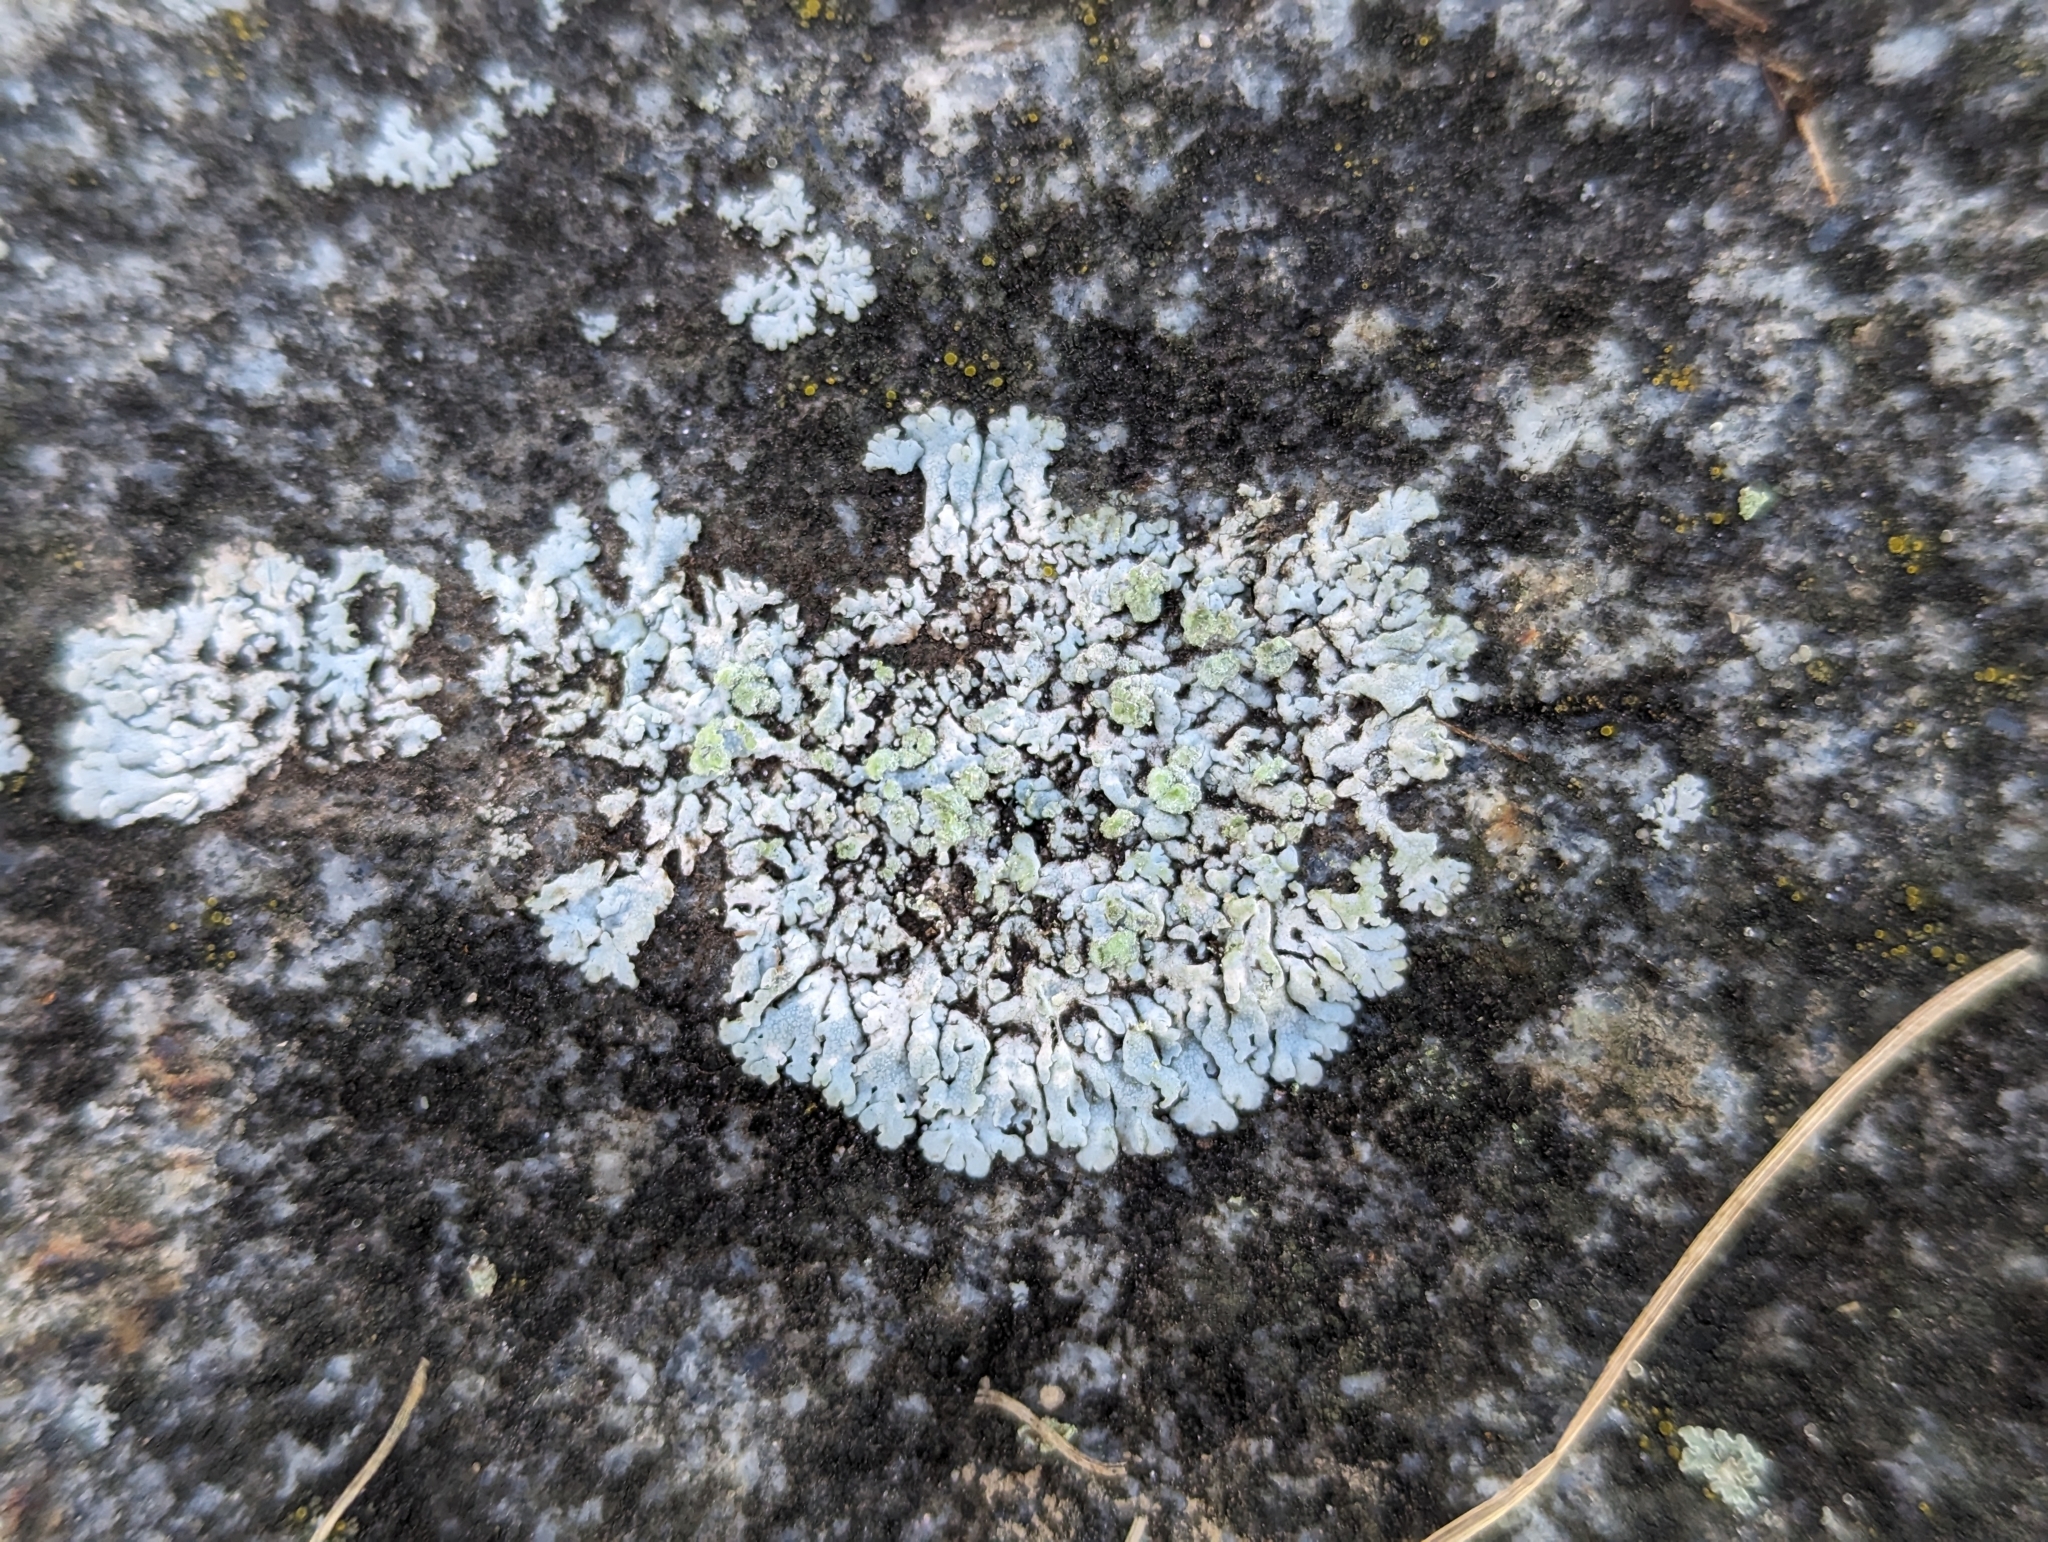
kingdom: Fungi
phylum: Ascomycota
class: Lecanoromycetes
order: Caliciales
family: Physciaceae
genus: Physcia
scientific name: Physcia caesia
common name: Blue-gray rosette lichen
